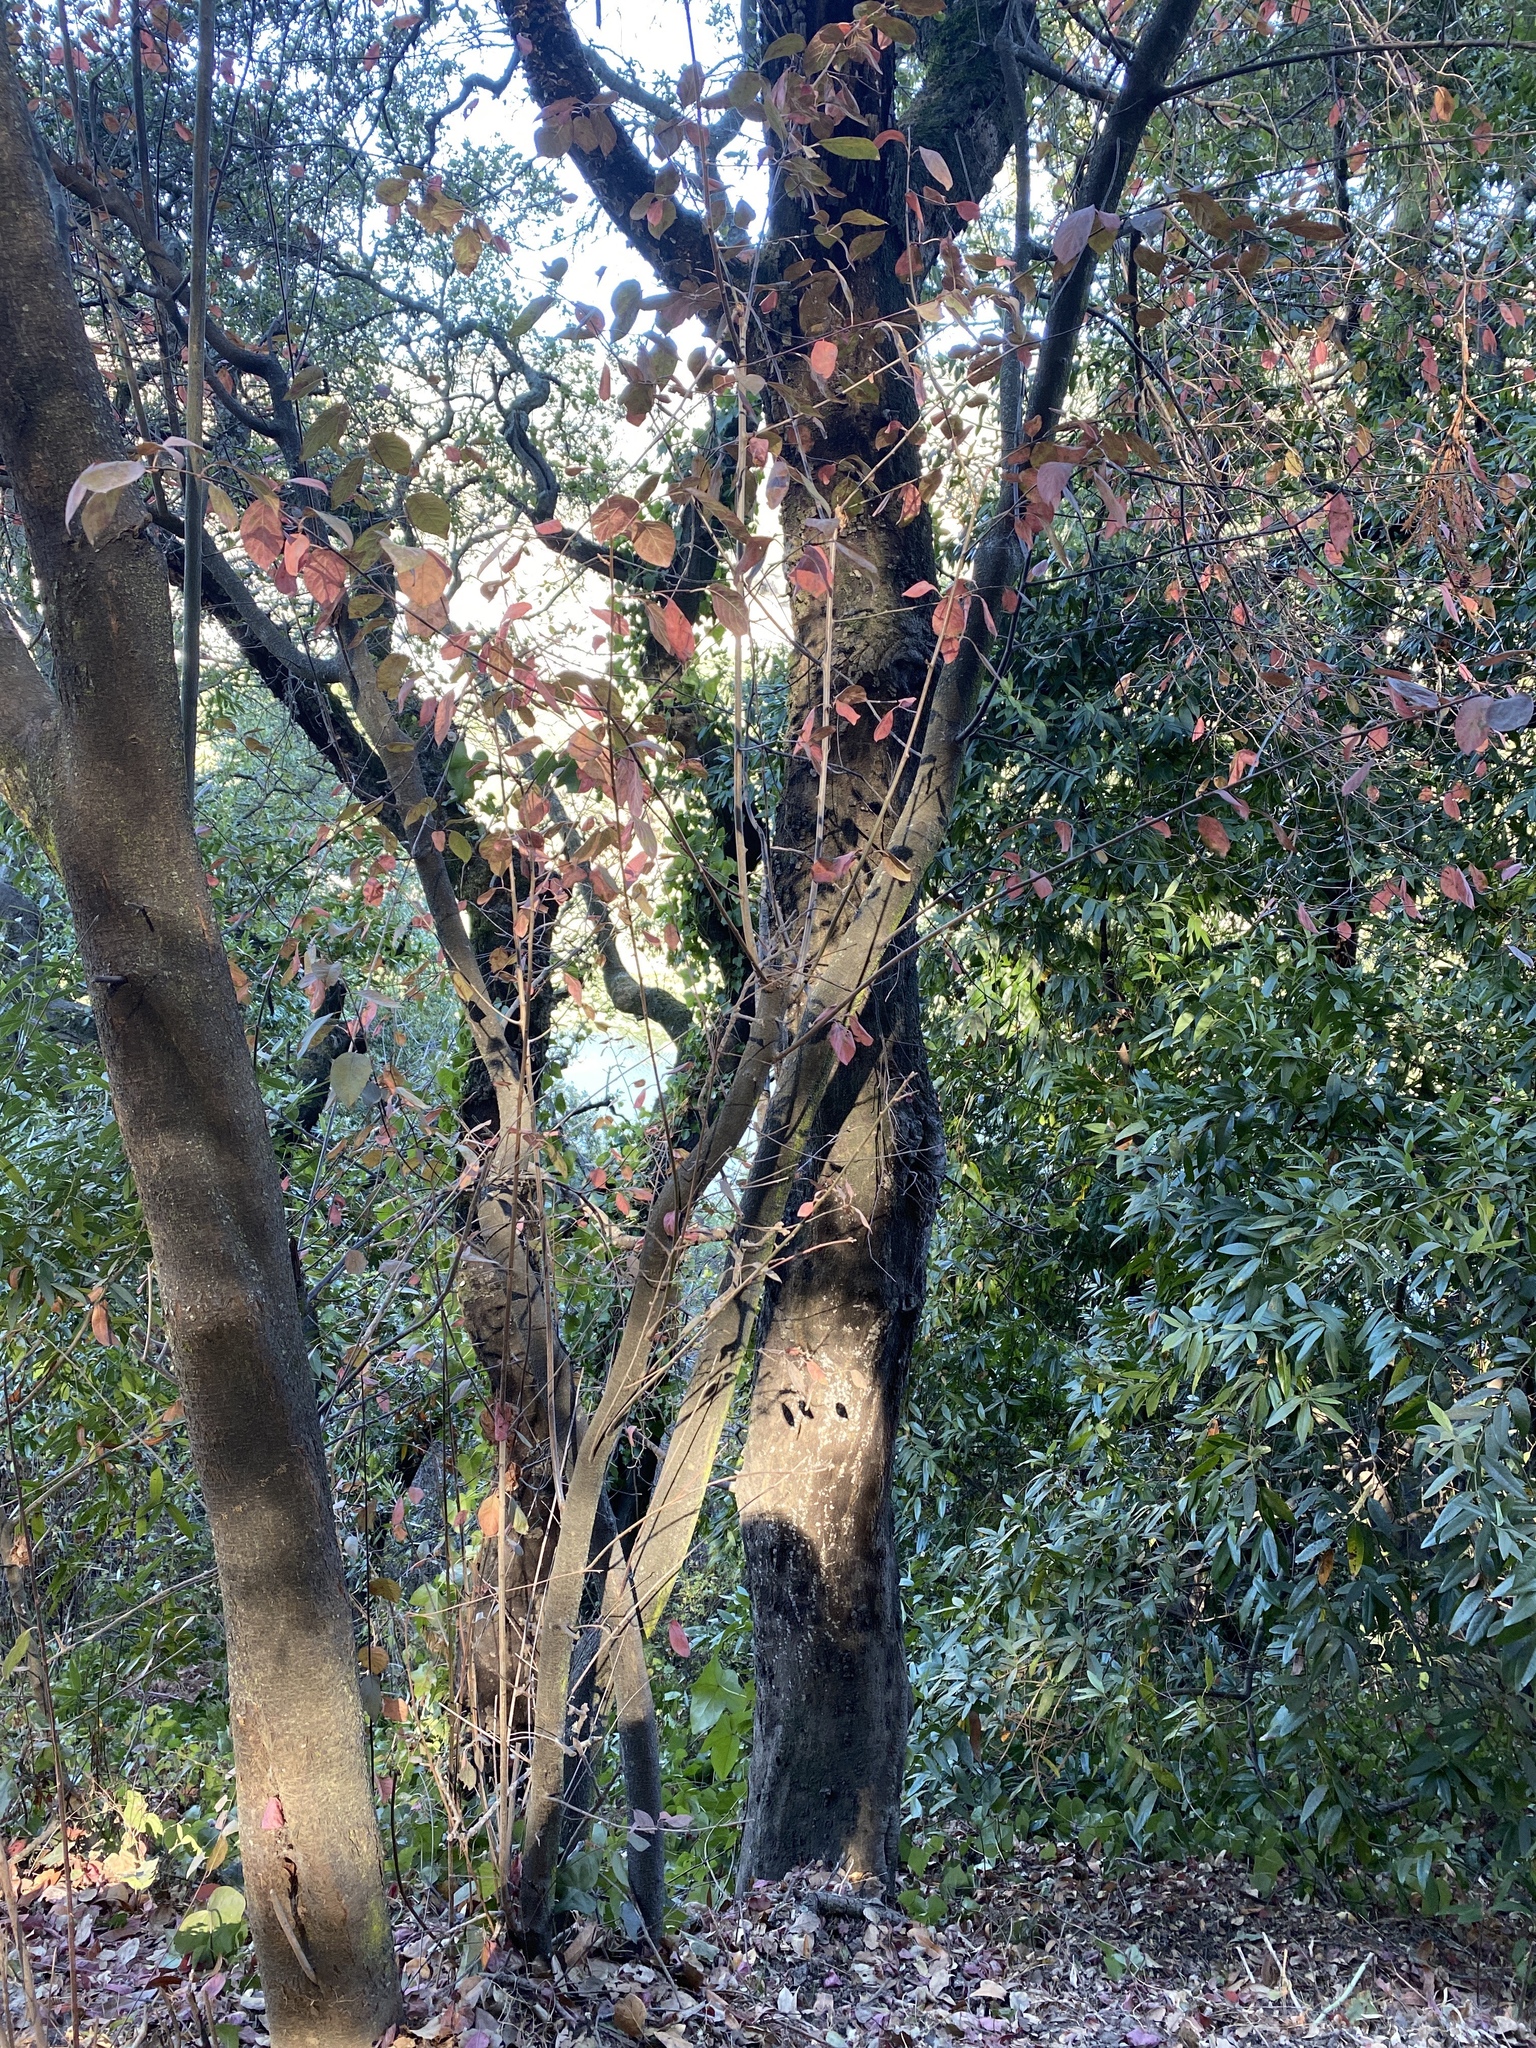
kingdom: Plantae
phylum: Tracheophyta
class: Magnoliopsida
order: Rosales
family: Rosaceae
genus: Prunus
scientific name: Prunus cerasifera
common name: Cherry plum
